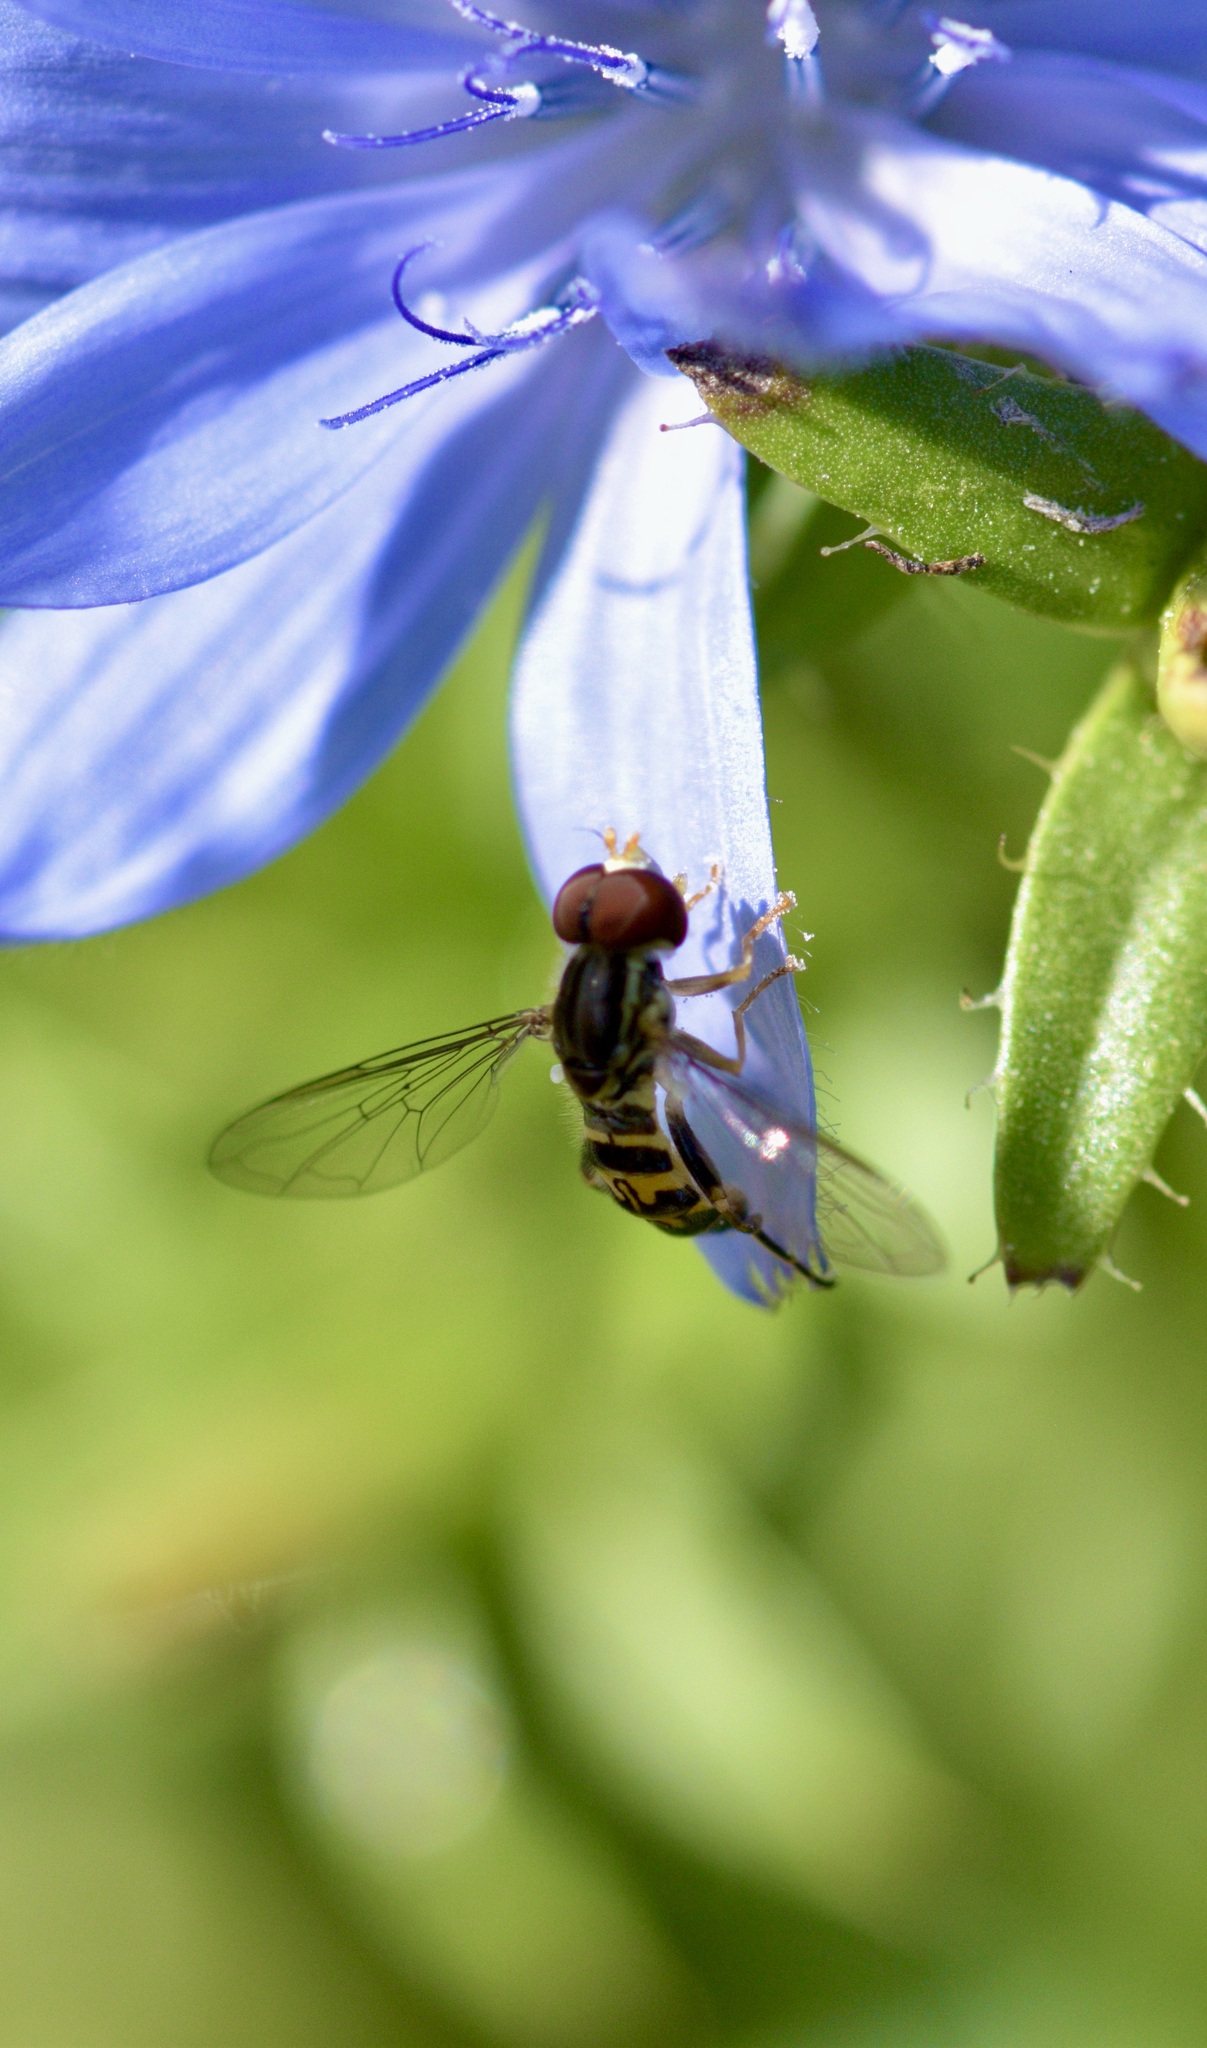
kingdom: Animalia
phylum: Arthropoda
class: Insecta
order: Diptera
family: Syrphidae
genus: Toxomerus
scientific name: Toxomerus geminatus
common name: Eastern calligrapher
